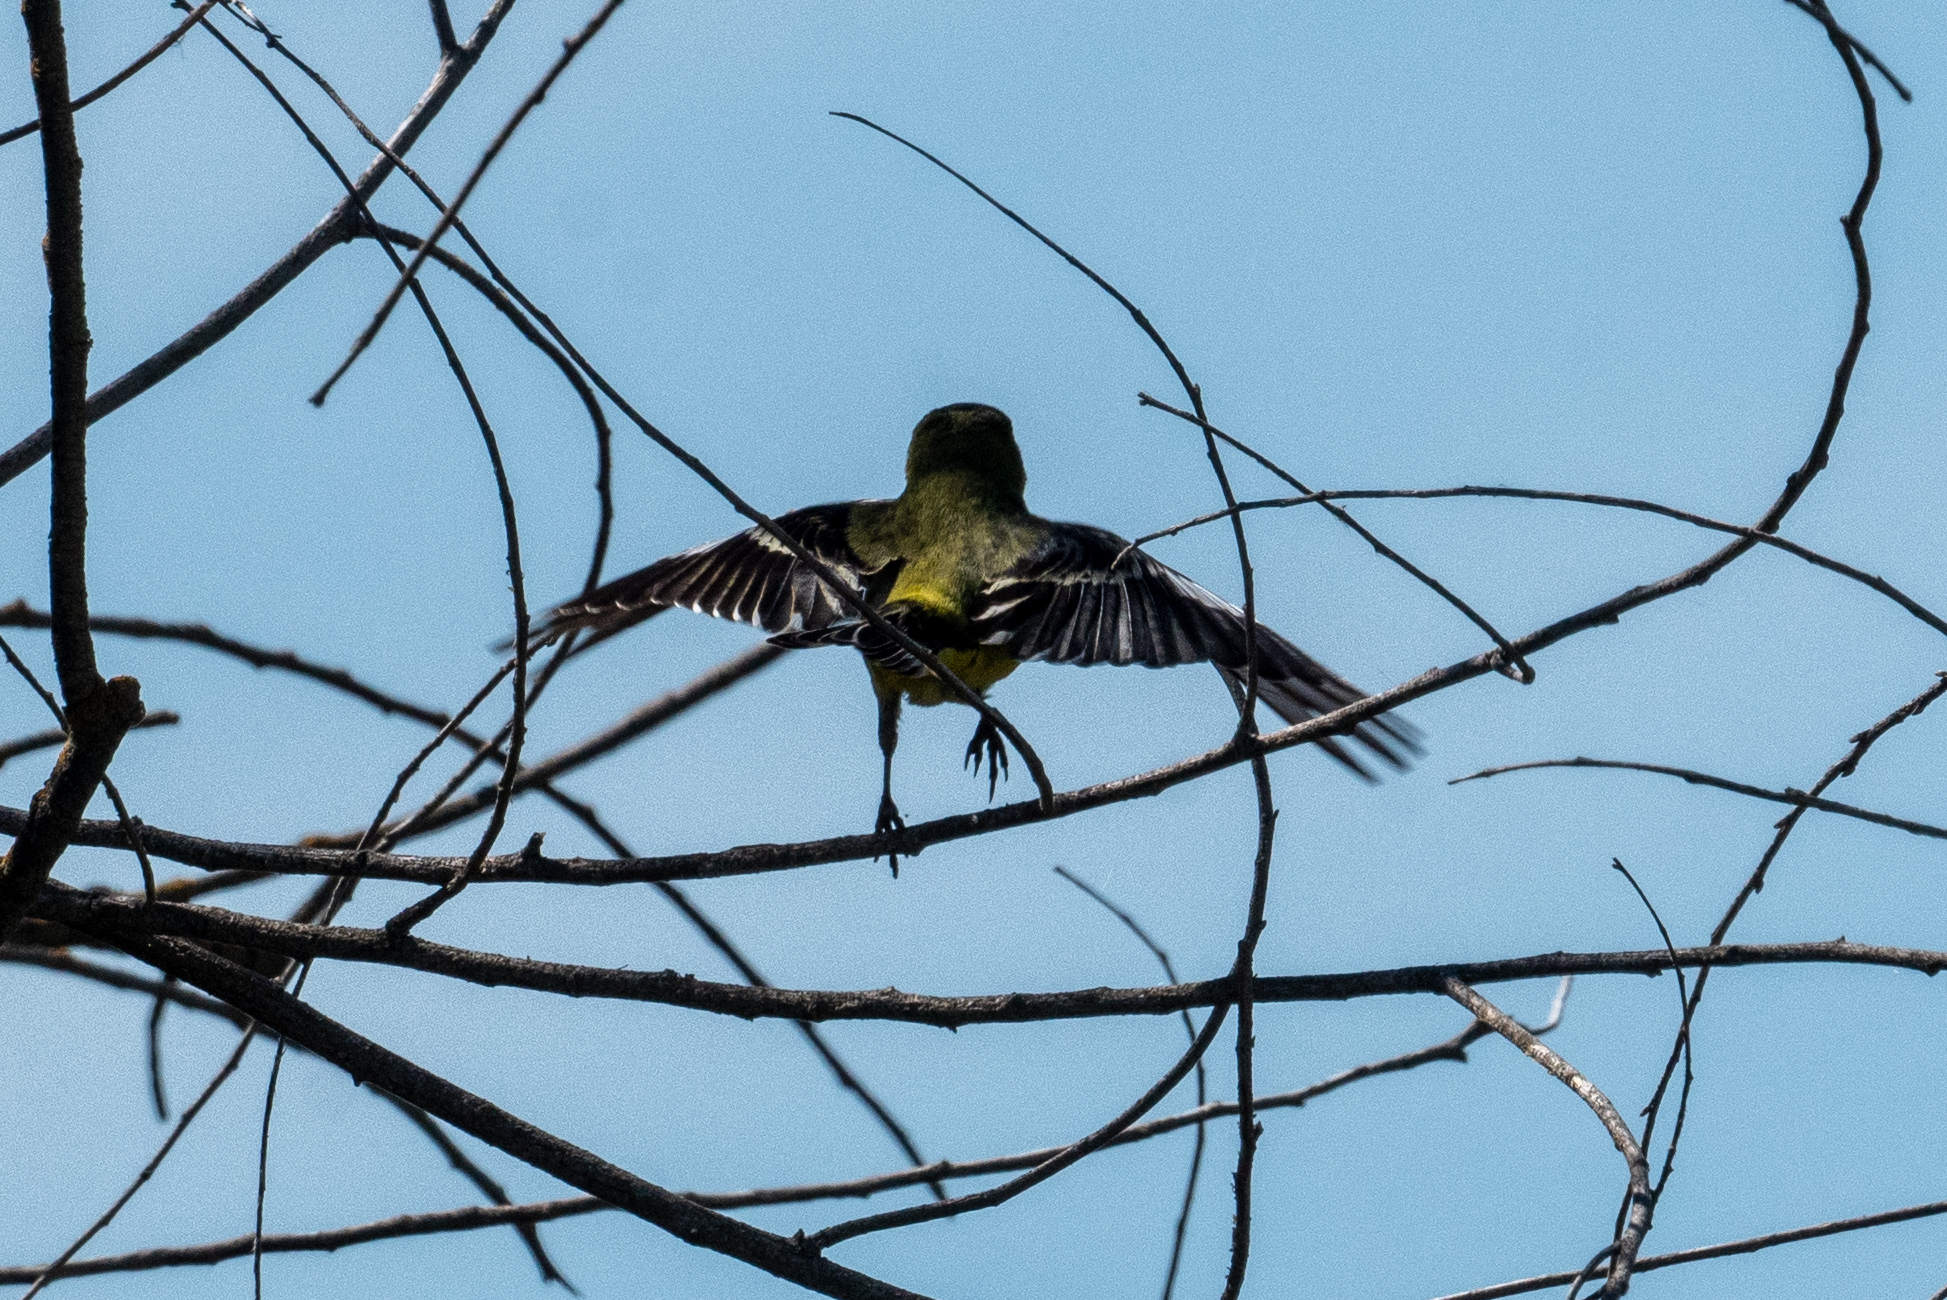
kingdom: Animalia
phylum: Chordata
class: Aves
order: Passeriformes
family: Fringillidae
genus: Spinus
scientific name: Spinus psaltria
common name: Lesser goldfinch
